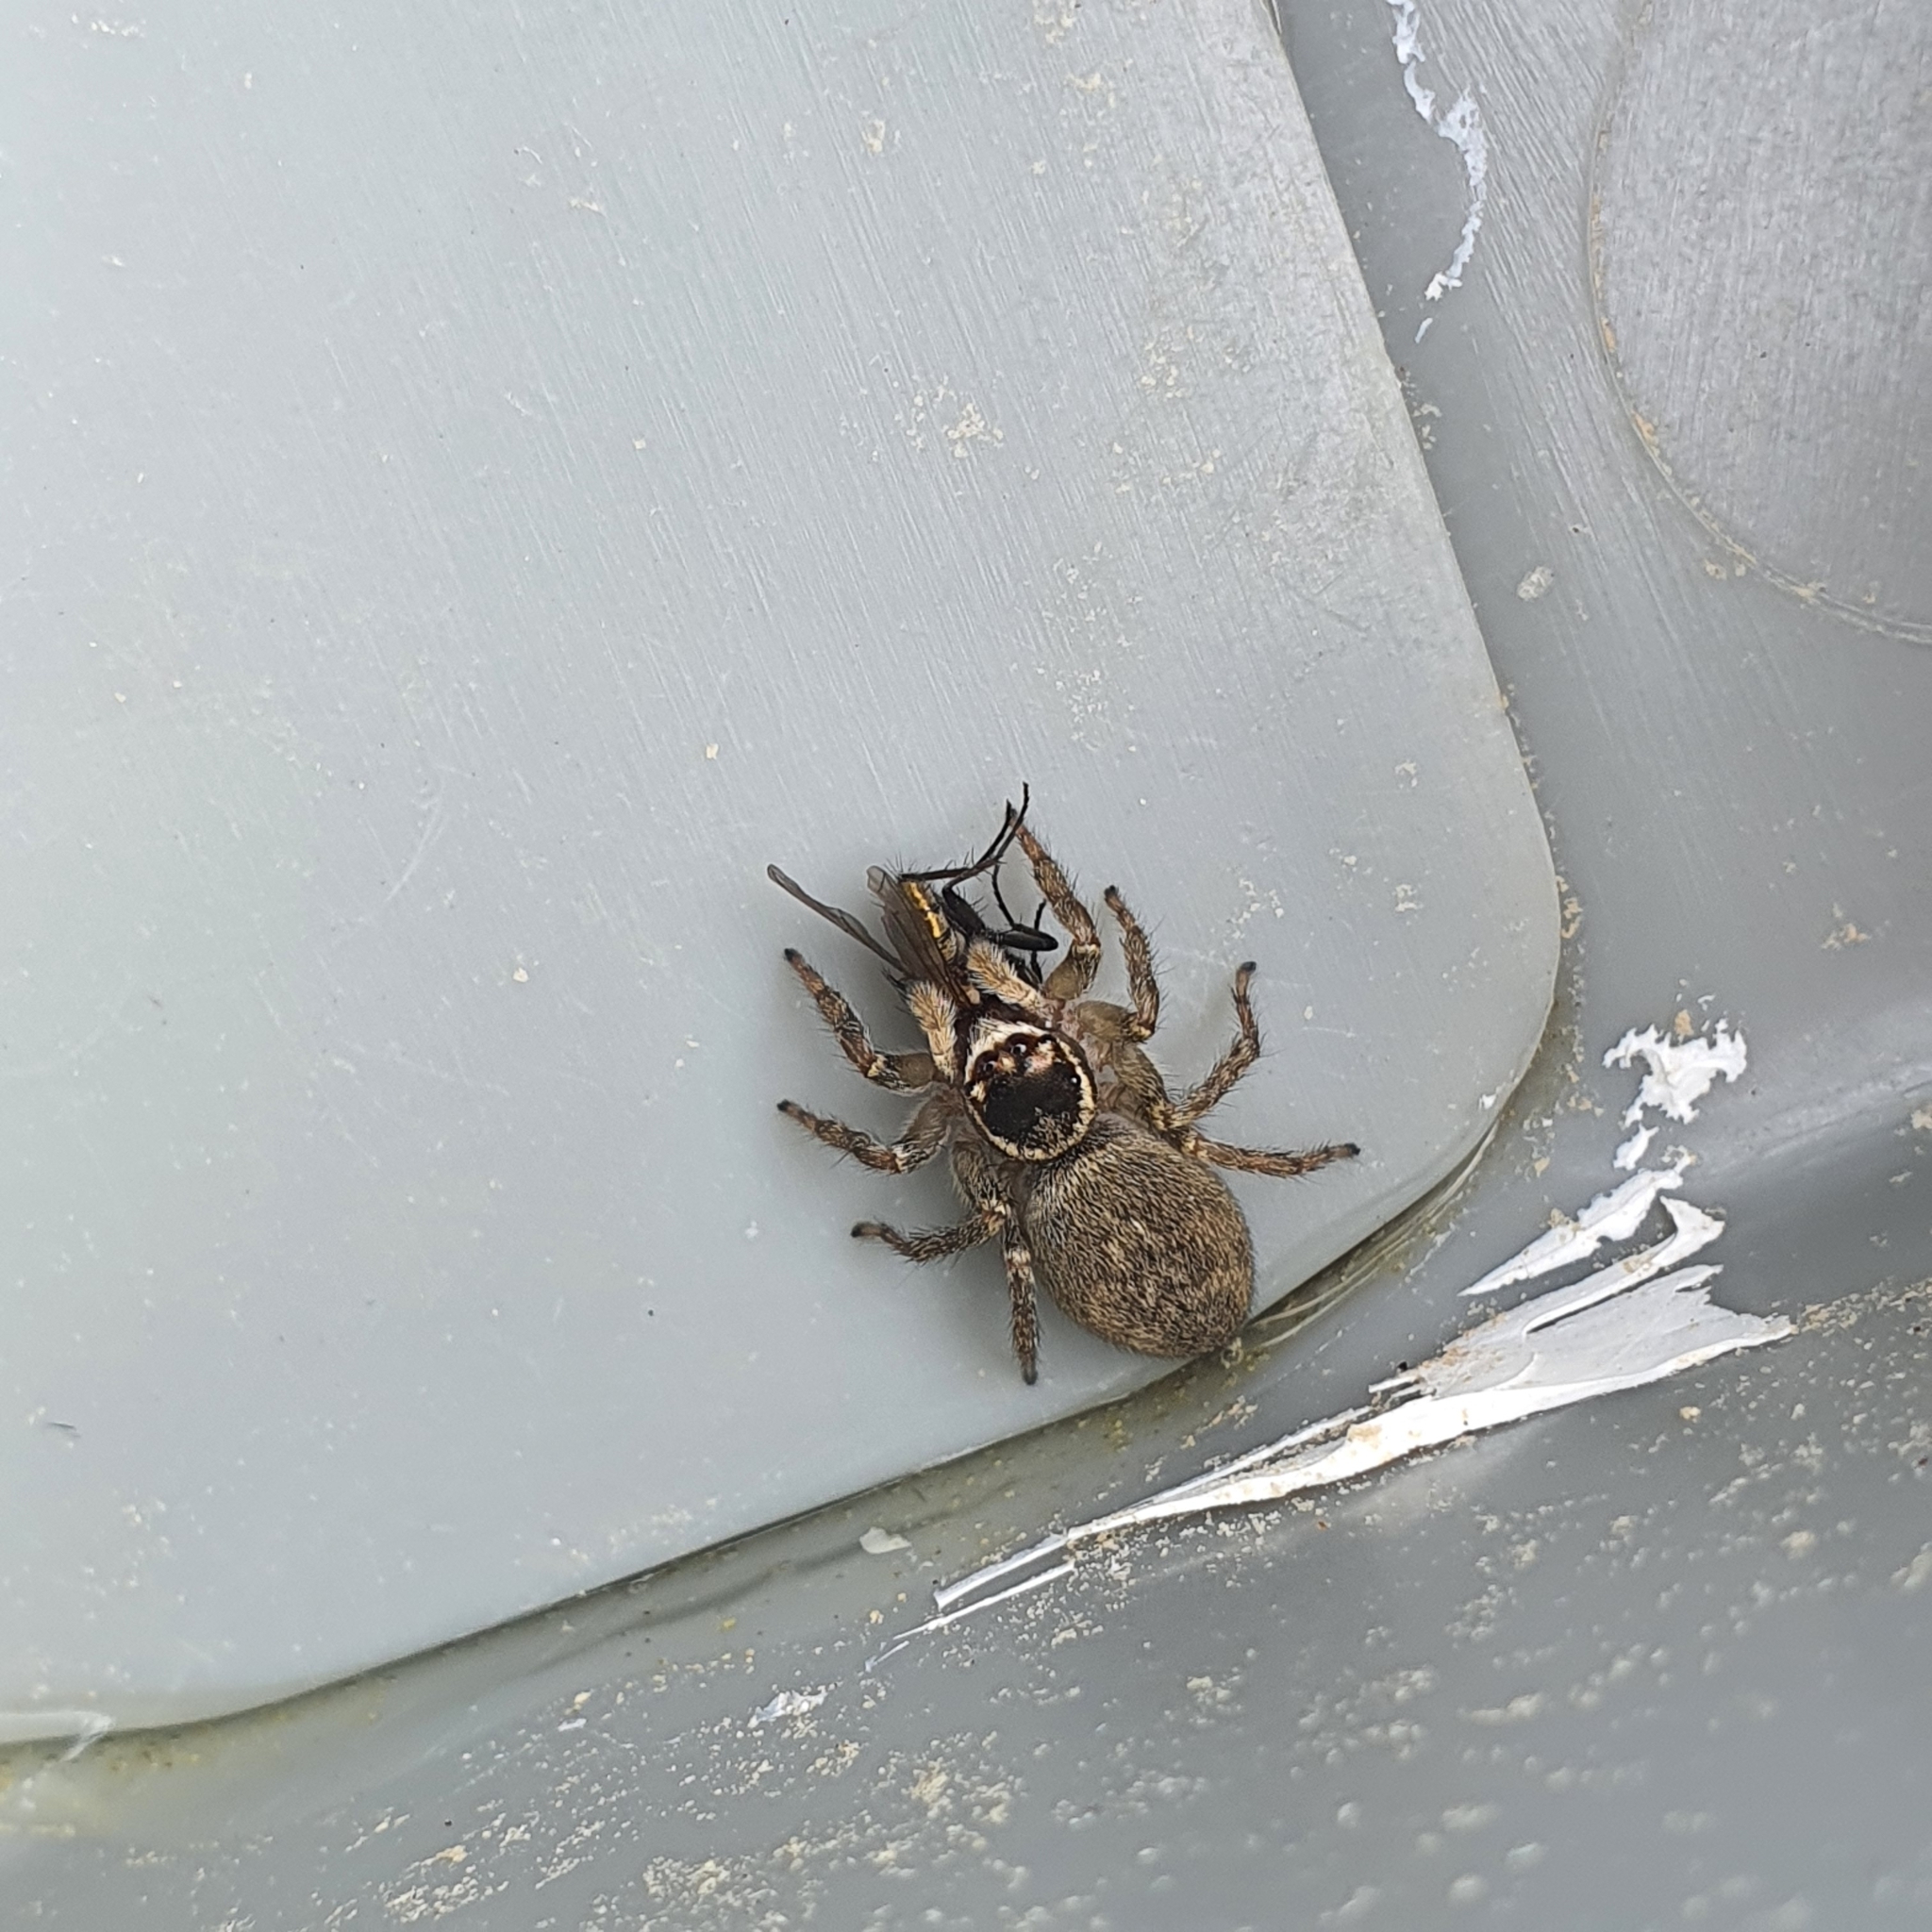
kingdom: Animalia
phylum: Arthropoda
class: Arachnida
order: Araneae
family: Salticidae
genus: Maratus
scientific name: Maratus griseus
